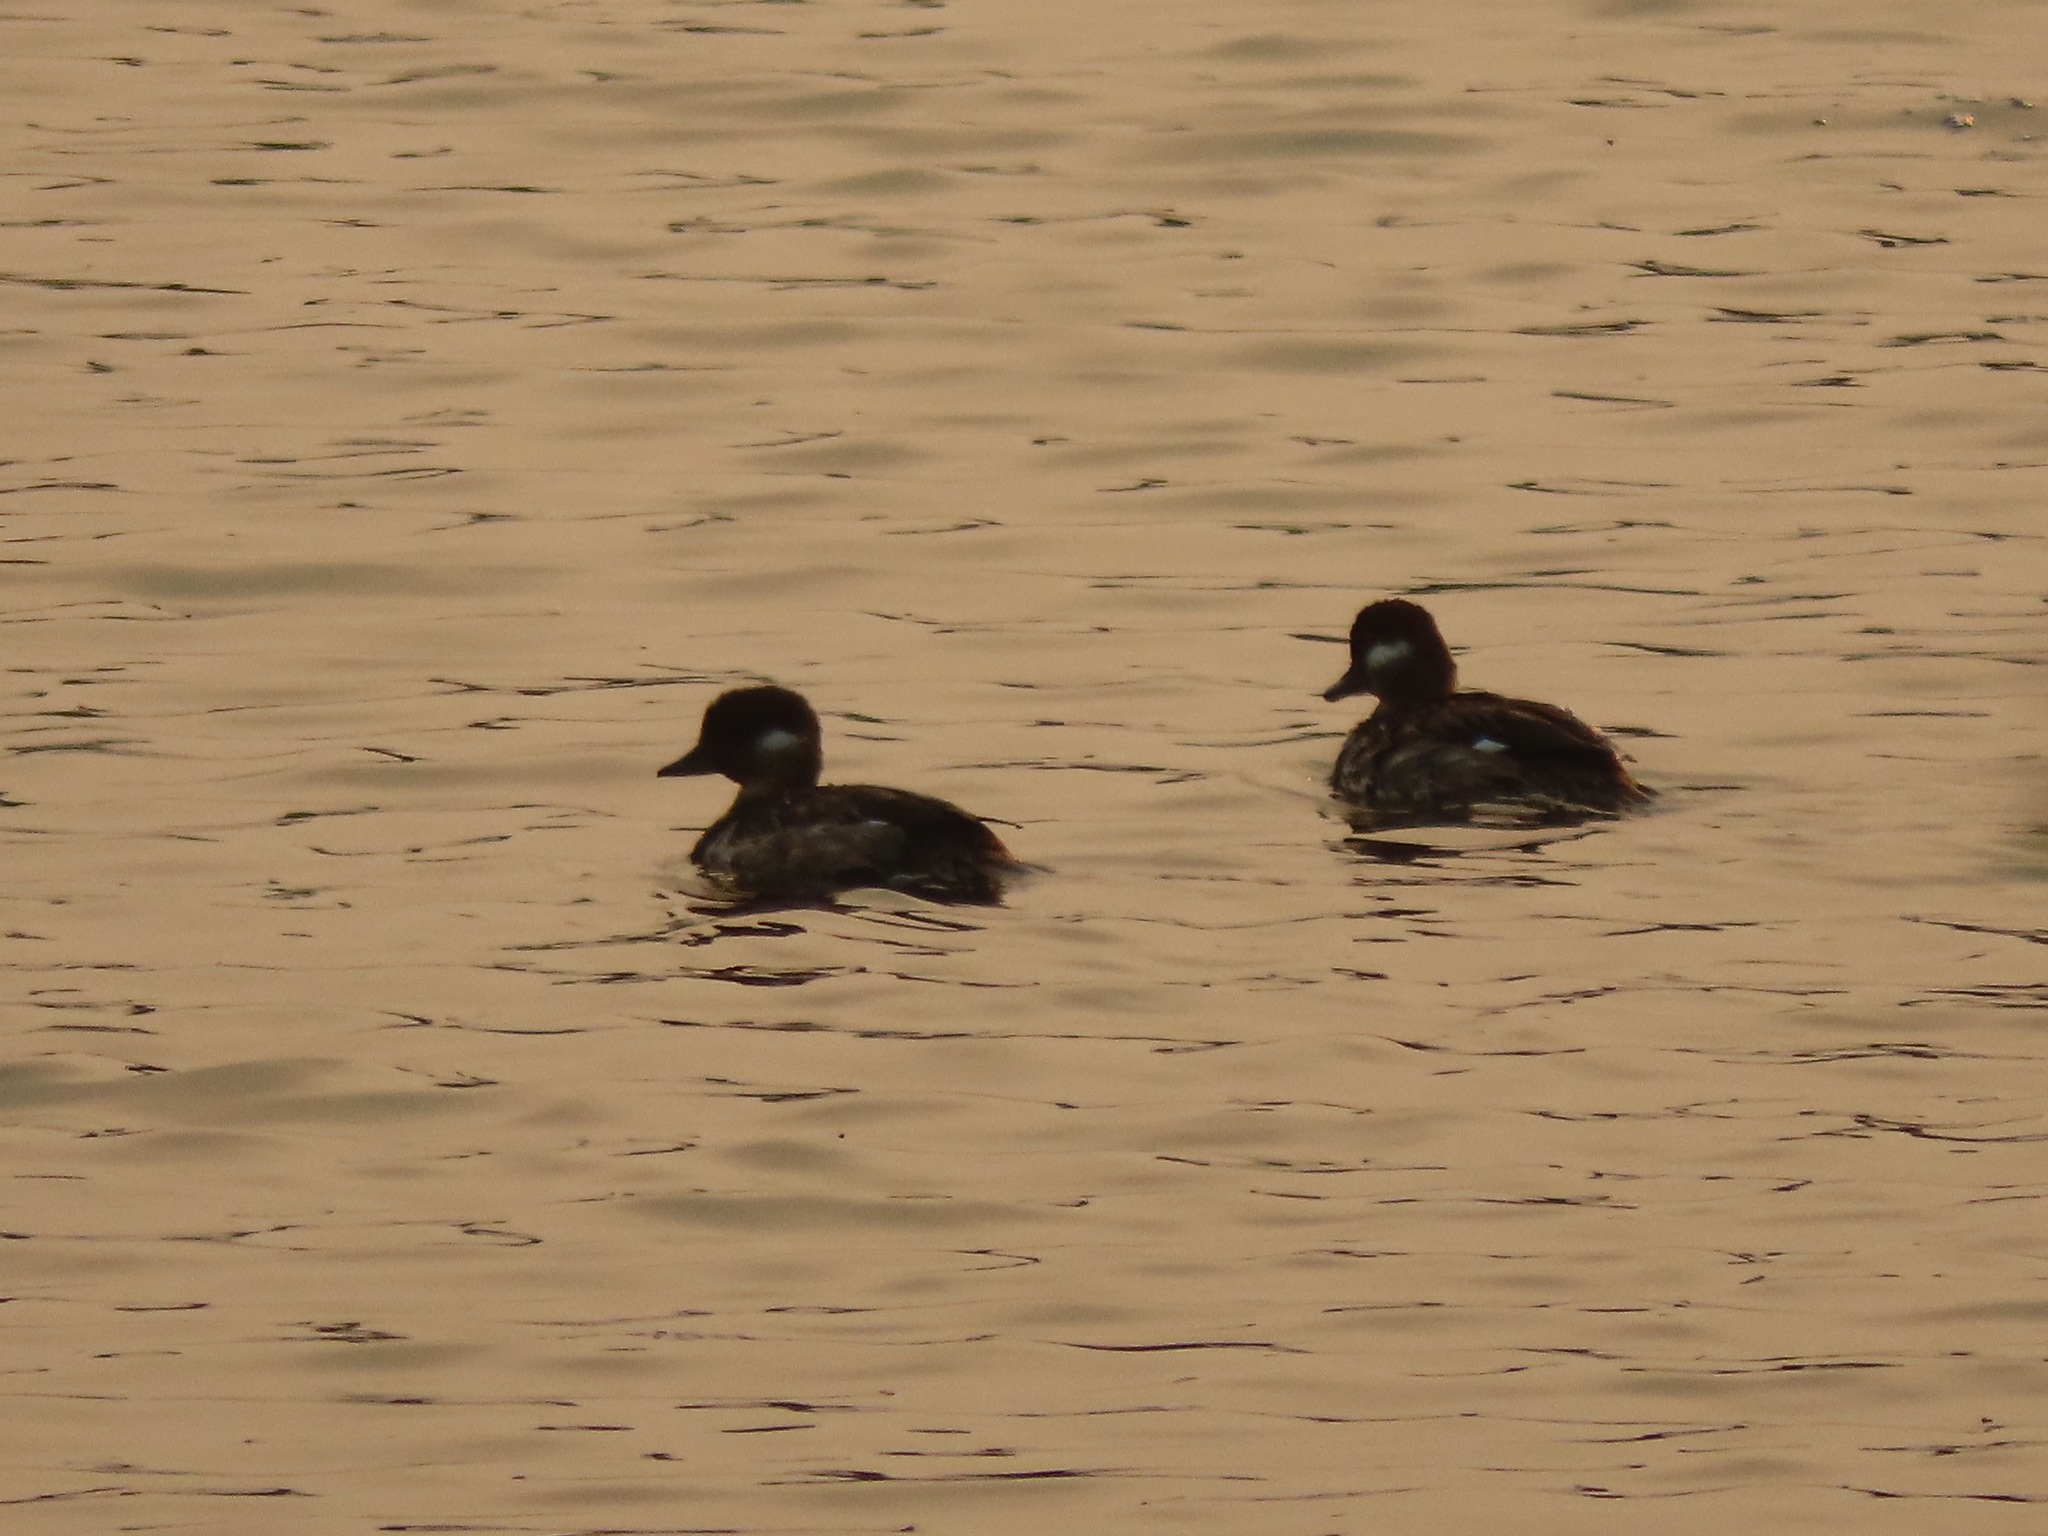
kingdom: Animalia
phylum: Chordata
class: Aves
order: Anseriformes
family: Anatidae
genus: Bucephala
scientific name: Bucephala albeola
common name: Bufflehead
